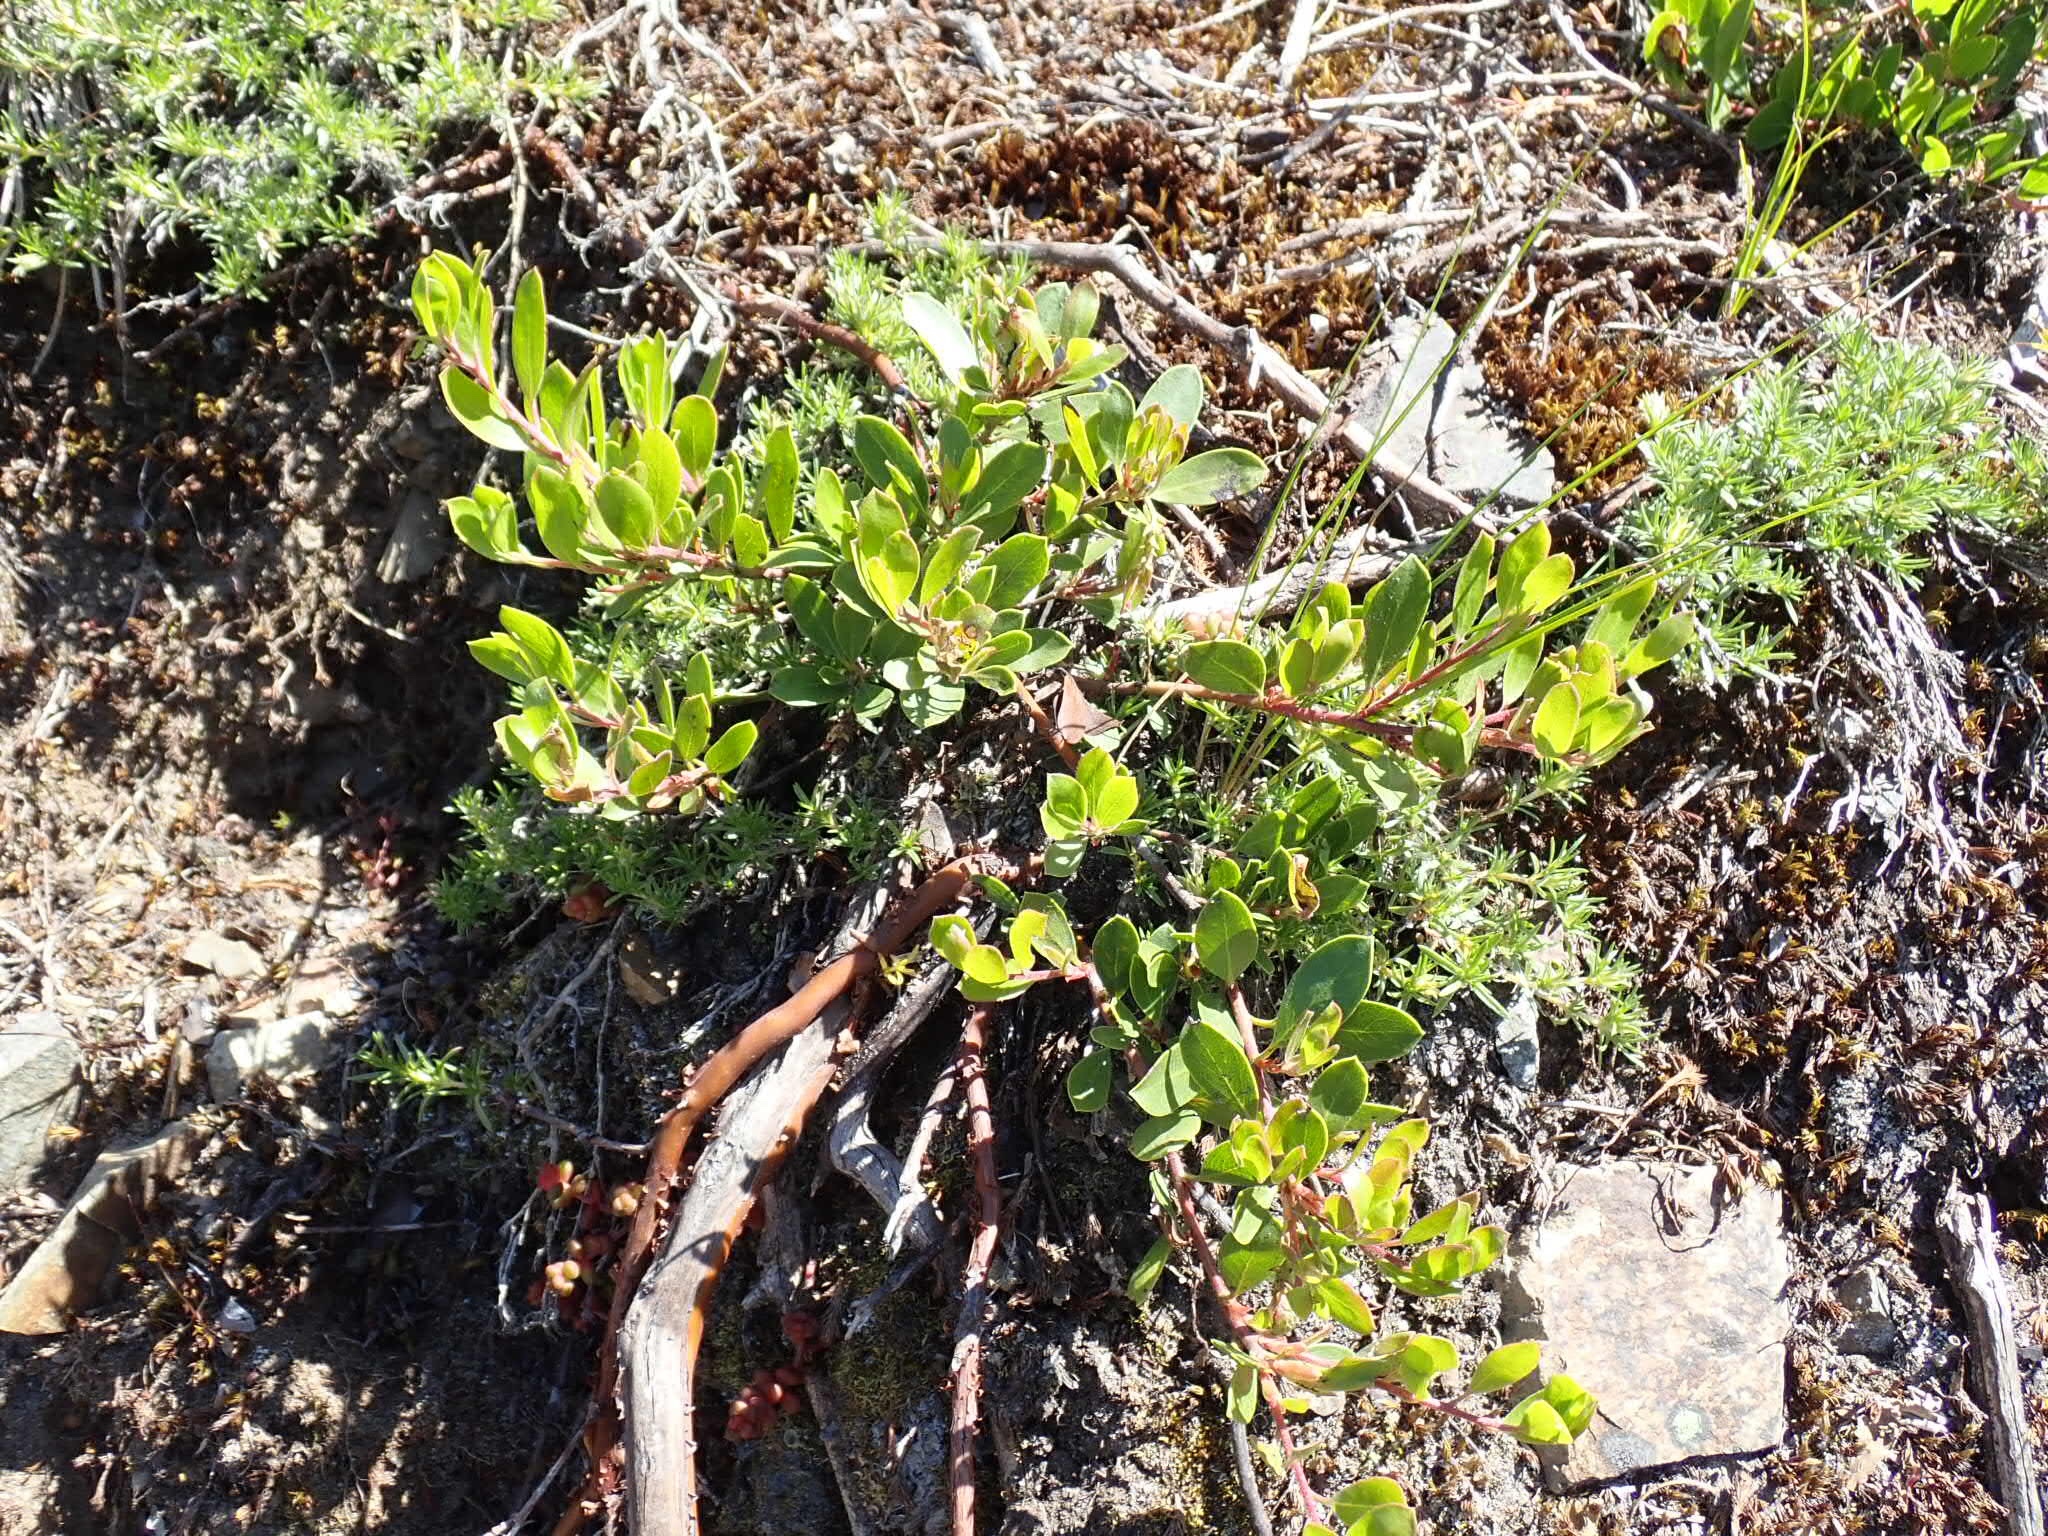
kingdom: Plantae
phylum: Tracheophyta
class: Magnoliopsida
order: Ericales
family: Ericaceae
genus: Arctostaphylos
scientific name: Arctostaphylos nevadensis
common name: Pinemat manzanita
